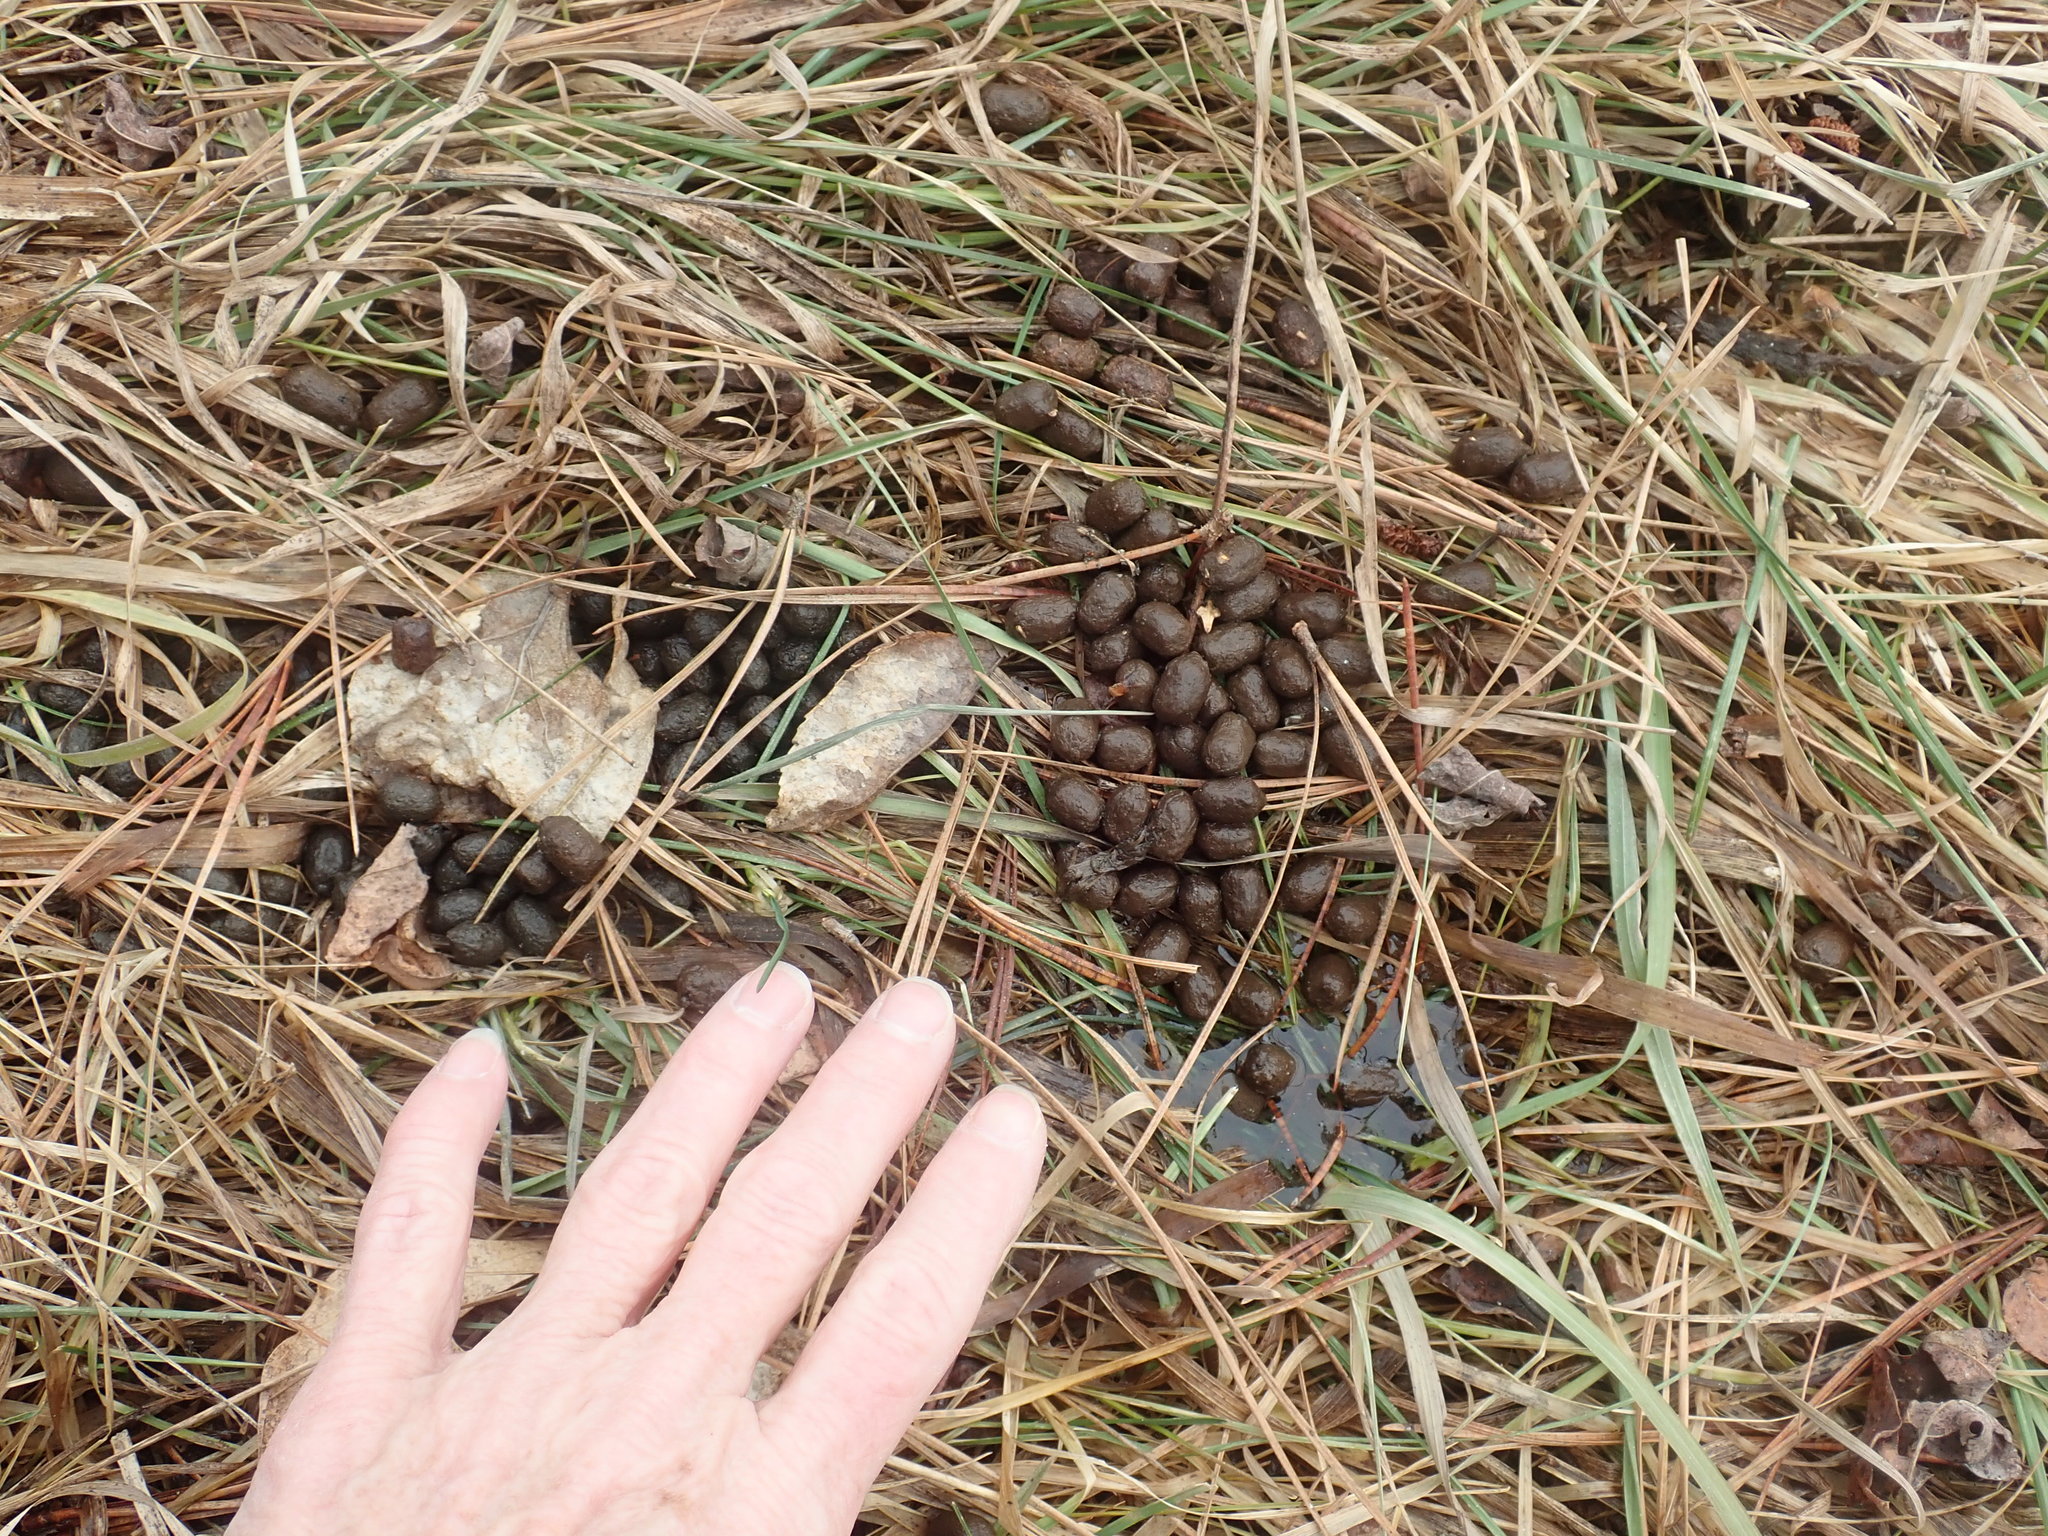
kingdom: Animalia
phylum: Chordata
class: Mammalia
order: Artiodactyla
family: Cervidae
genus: Odocoileus
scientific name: Odocoileus virginianus
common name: White-tailed deer
